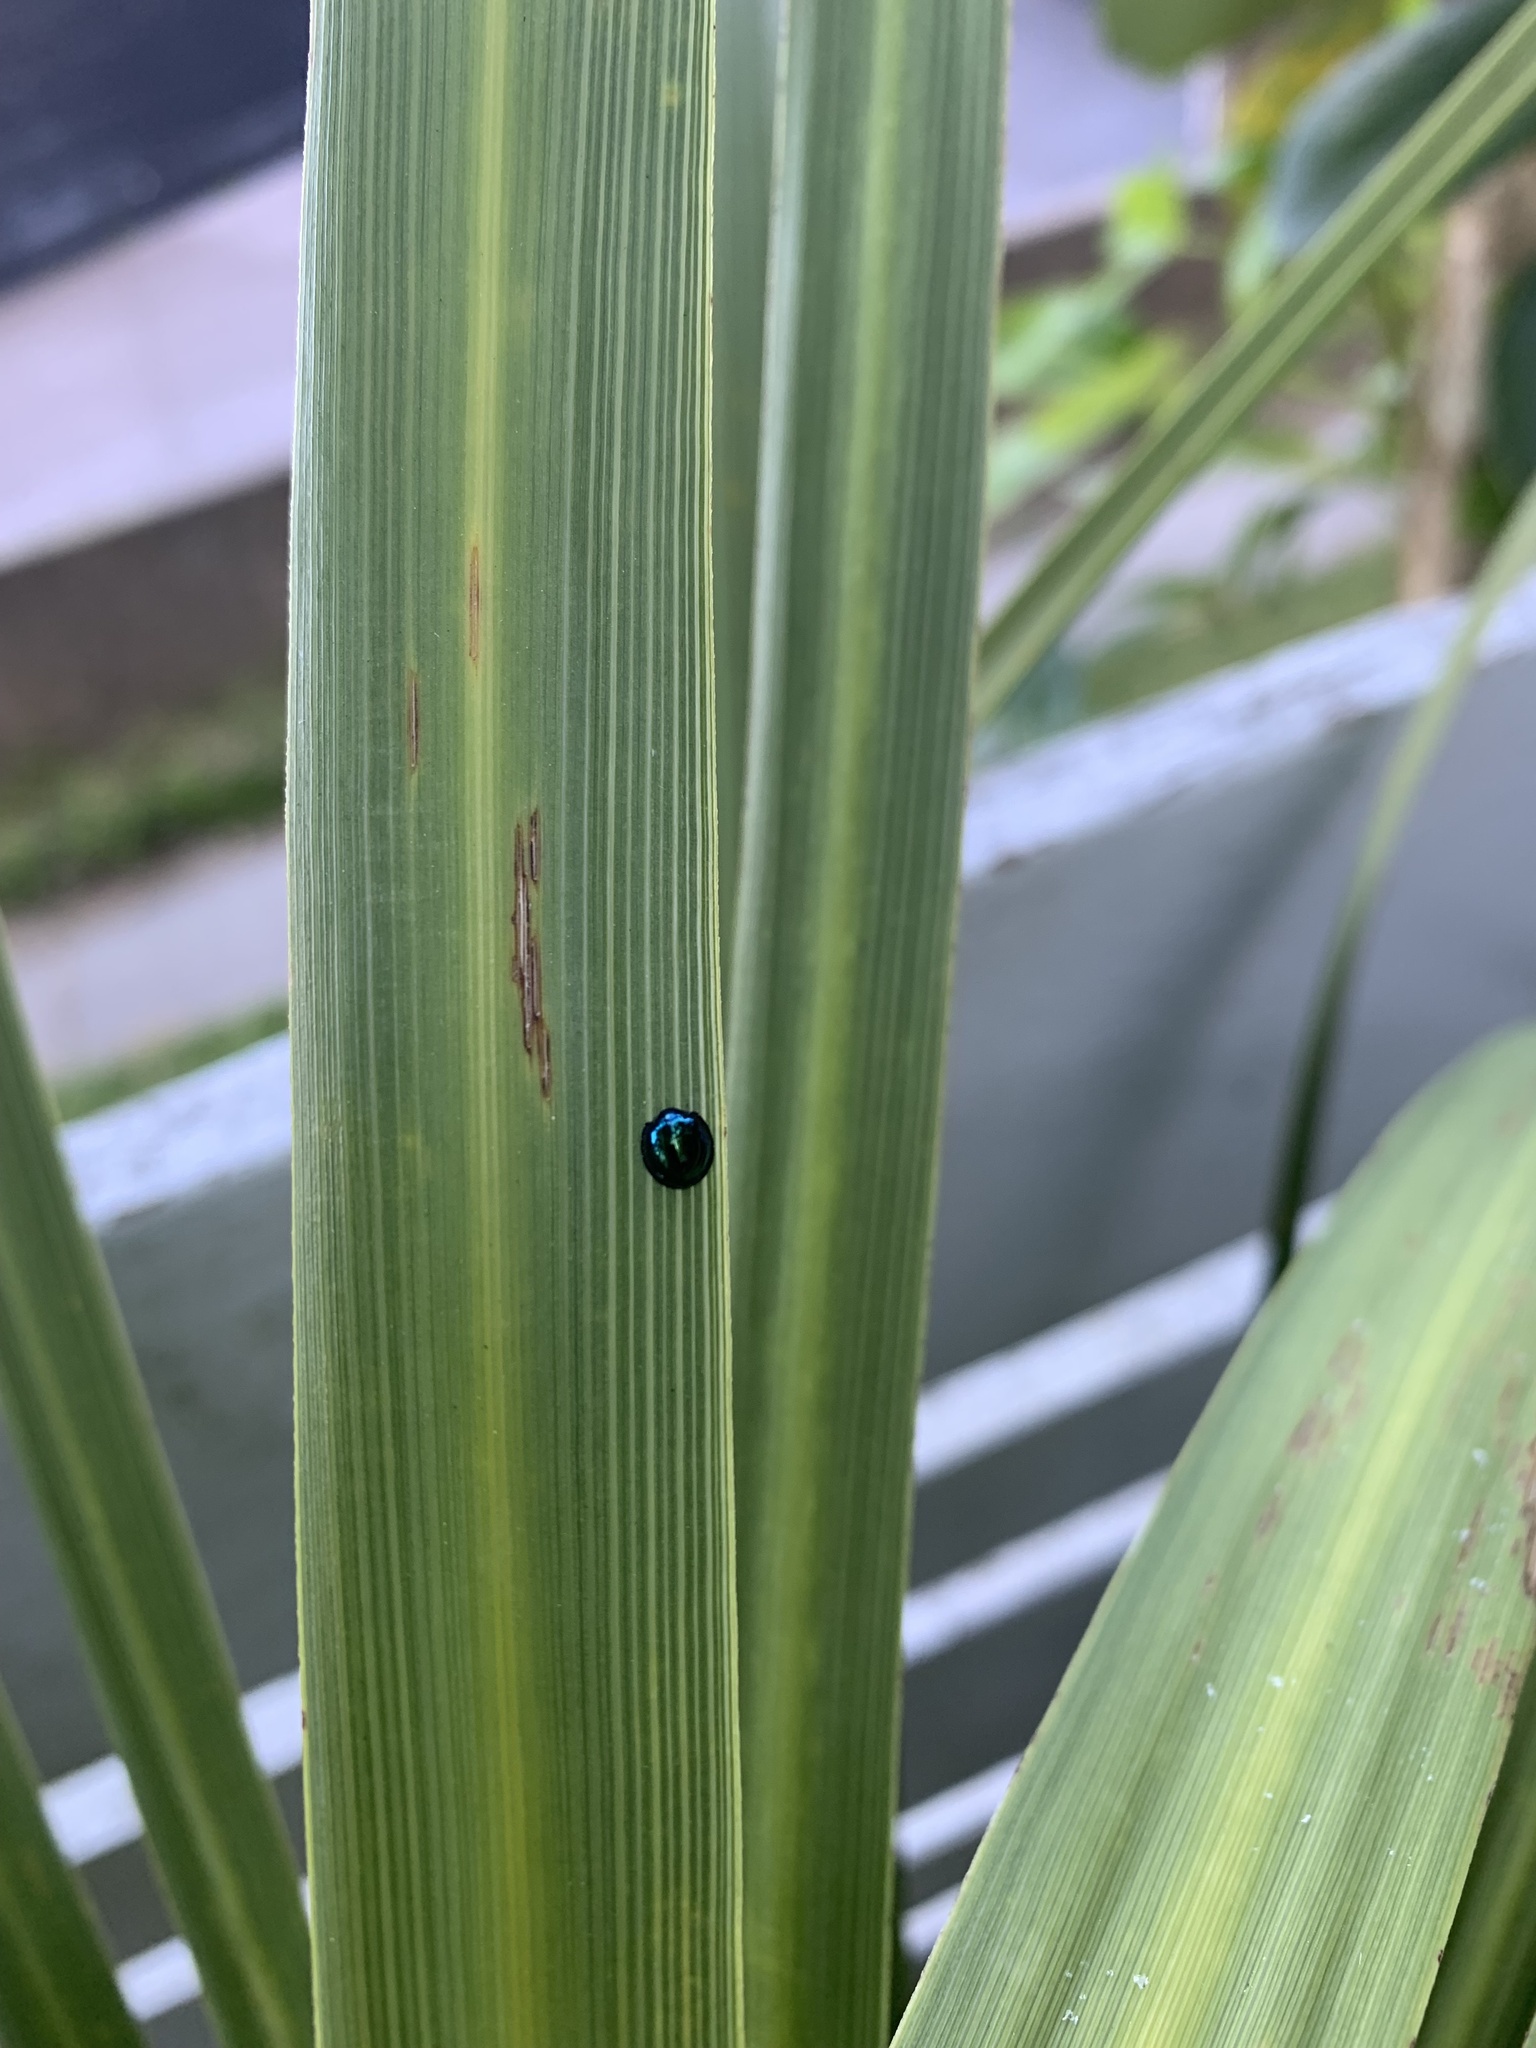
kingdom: Animalia
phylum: Arthropoda
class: Insecta
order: Coleoptera
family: Coccinellidae
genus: Halmus
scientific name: Halmus chalybeus
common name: Steel blue ladybird beetle
